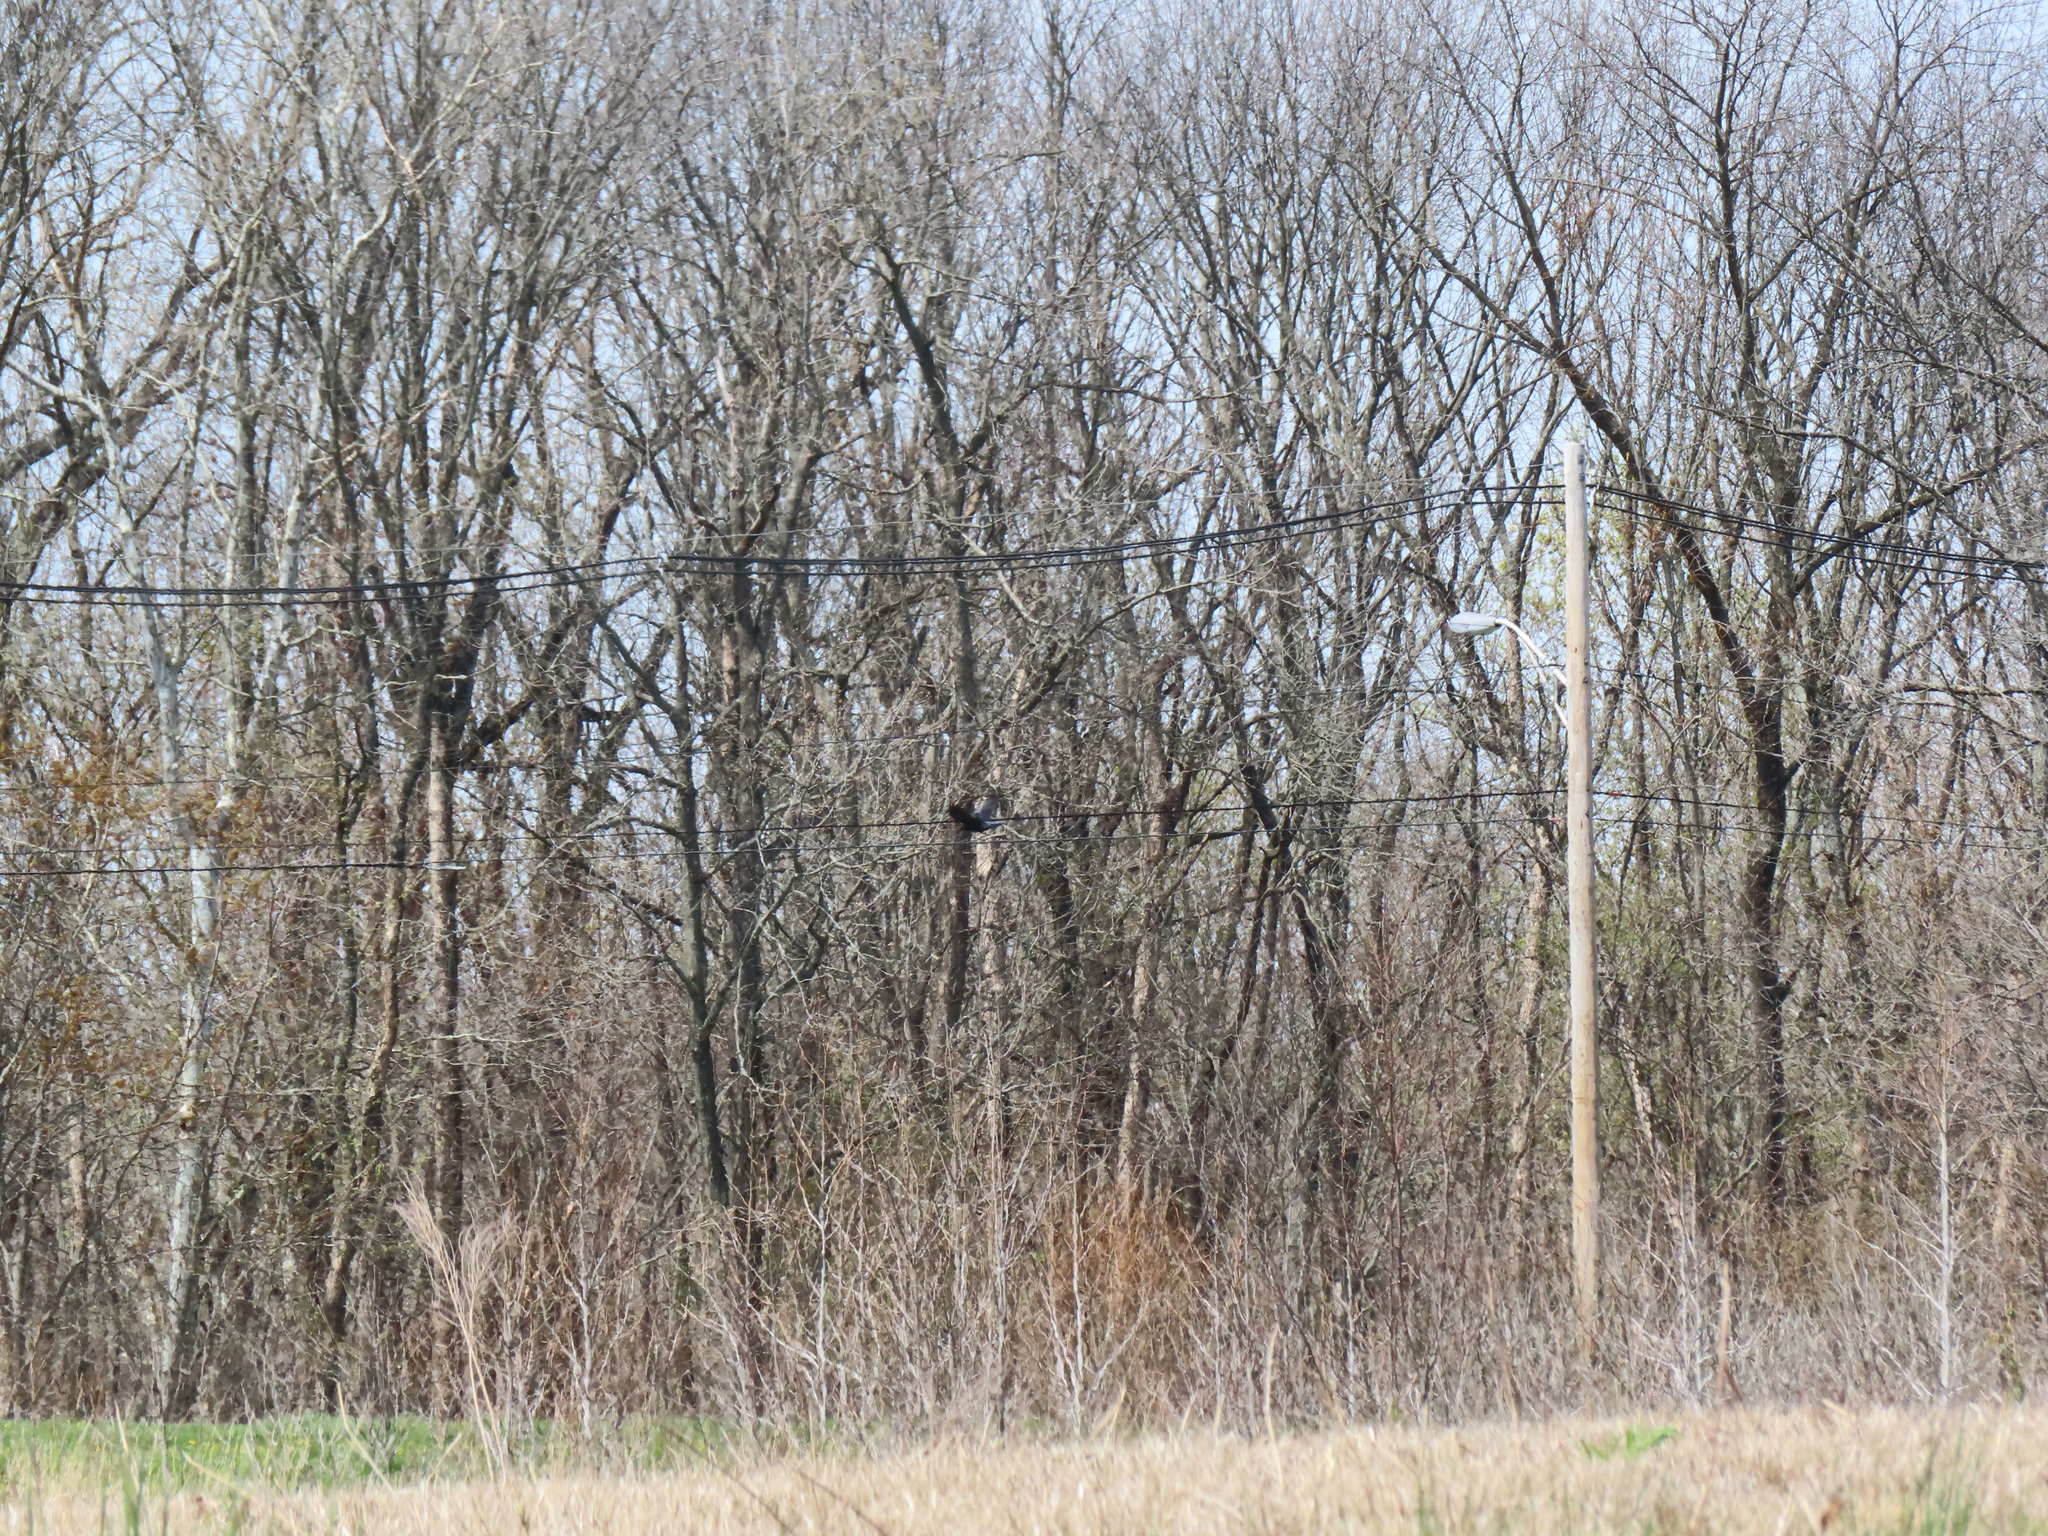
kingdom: Animalia
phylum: Chordata
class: Aves
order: Passeriformes
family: Corvidae
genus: Corvus
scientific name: Corvus brachyrhynchos
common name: American crow
